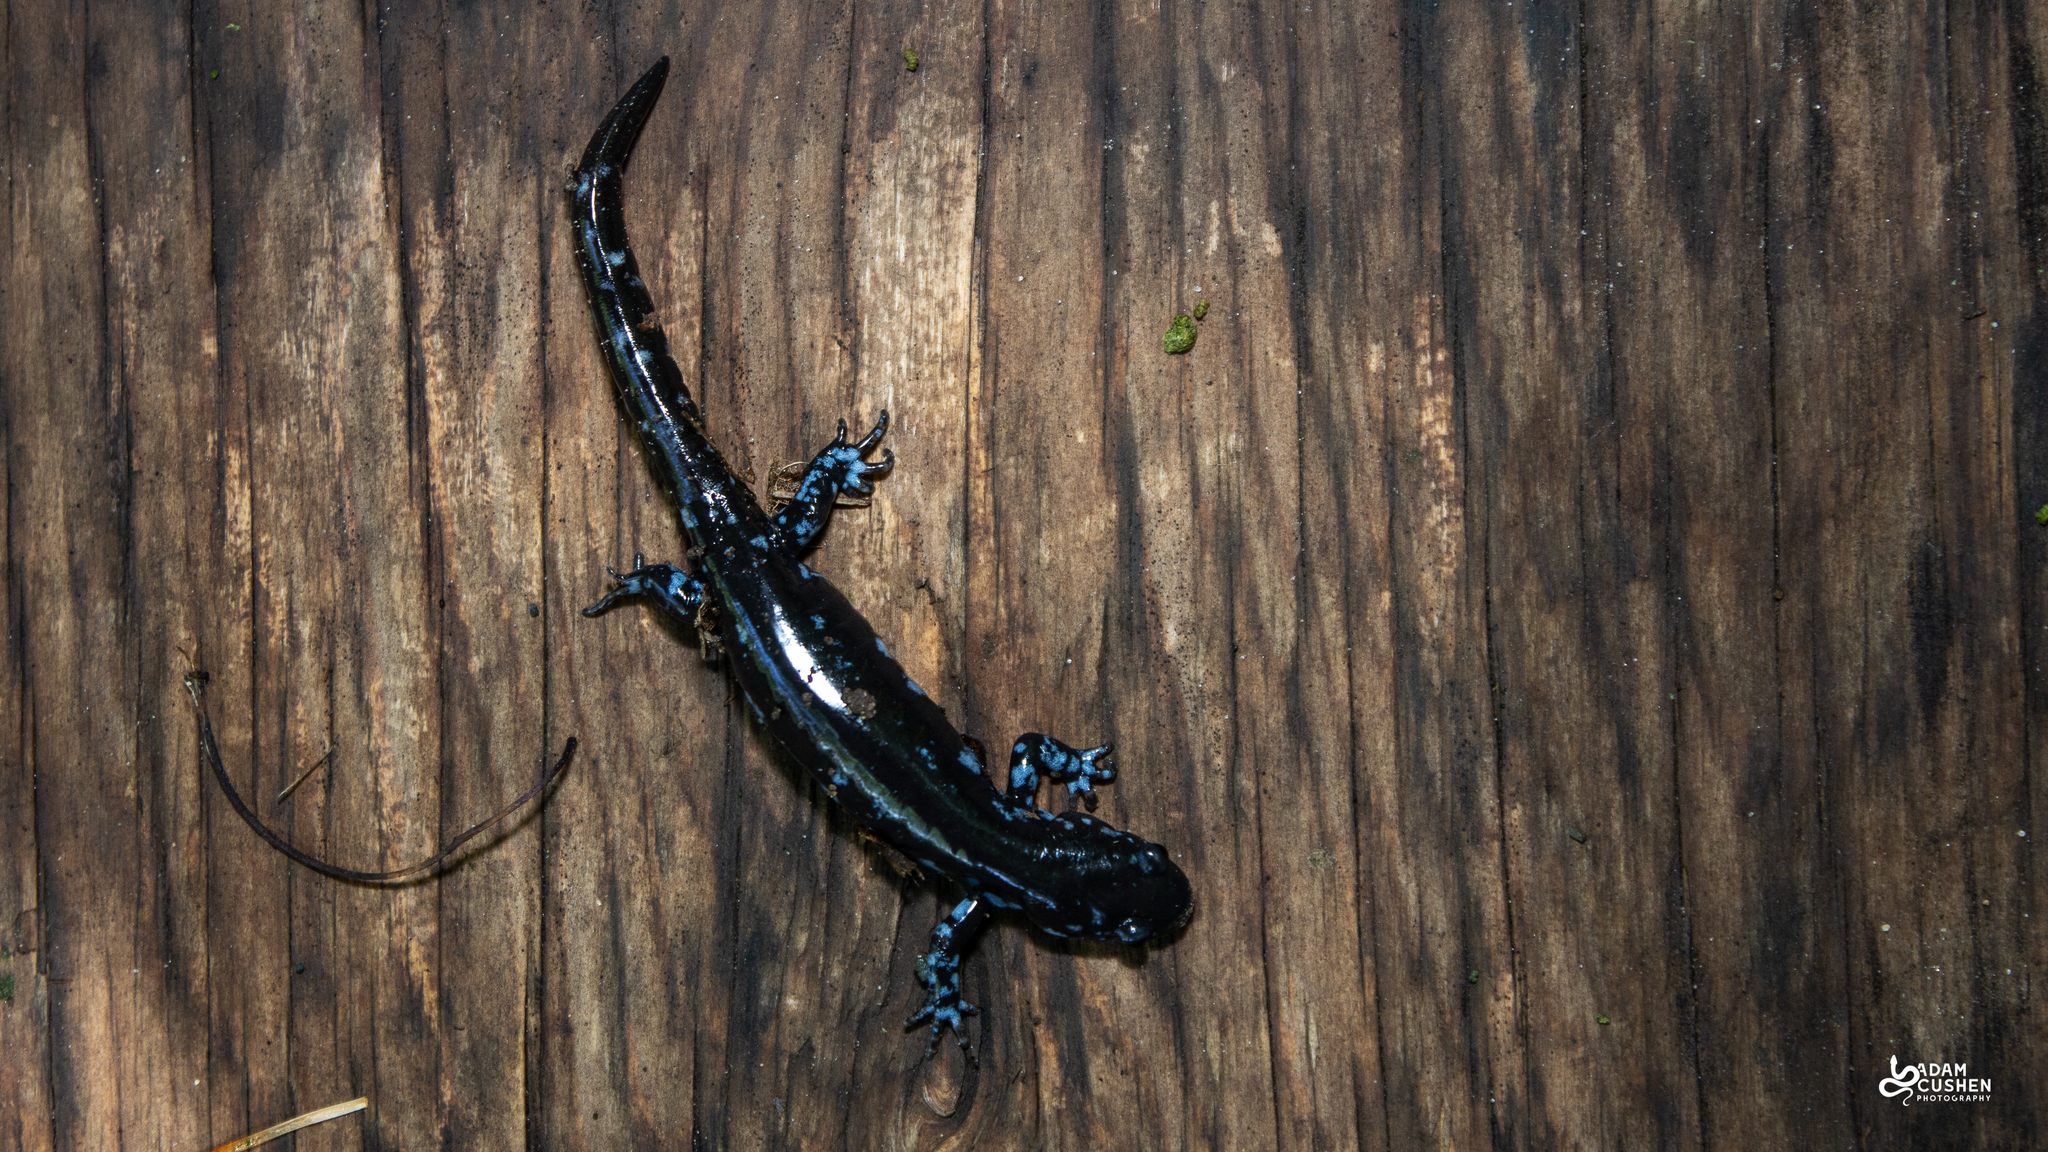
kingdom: Animalia
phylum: Chordata
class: Amphibia
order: Caudata
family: Ambystomatidae
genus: Ambystoma
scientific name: Ambystoma laterale
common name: Blue-spotted salamander
